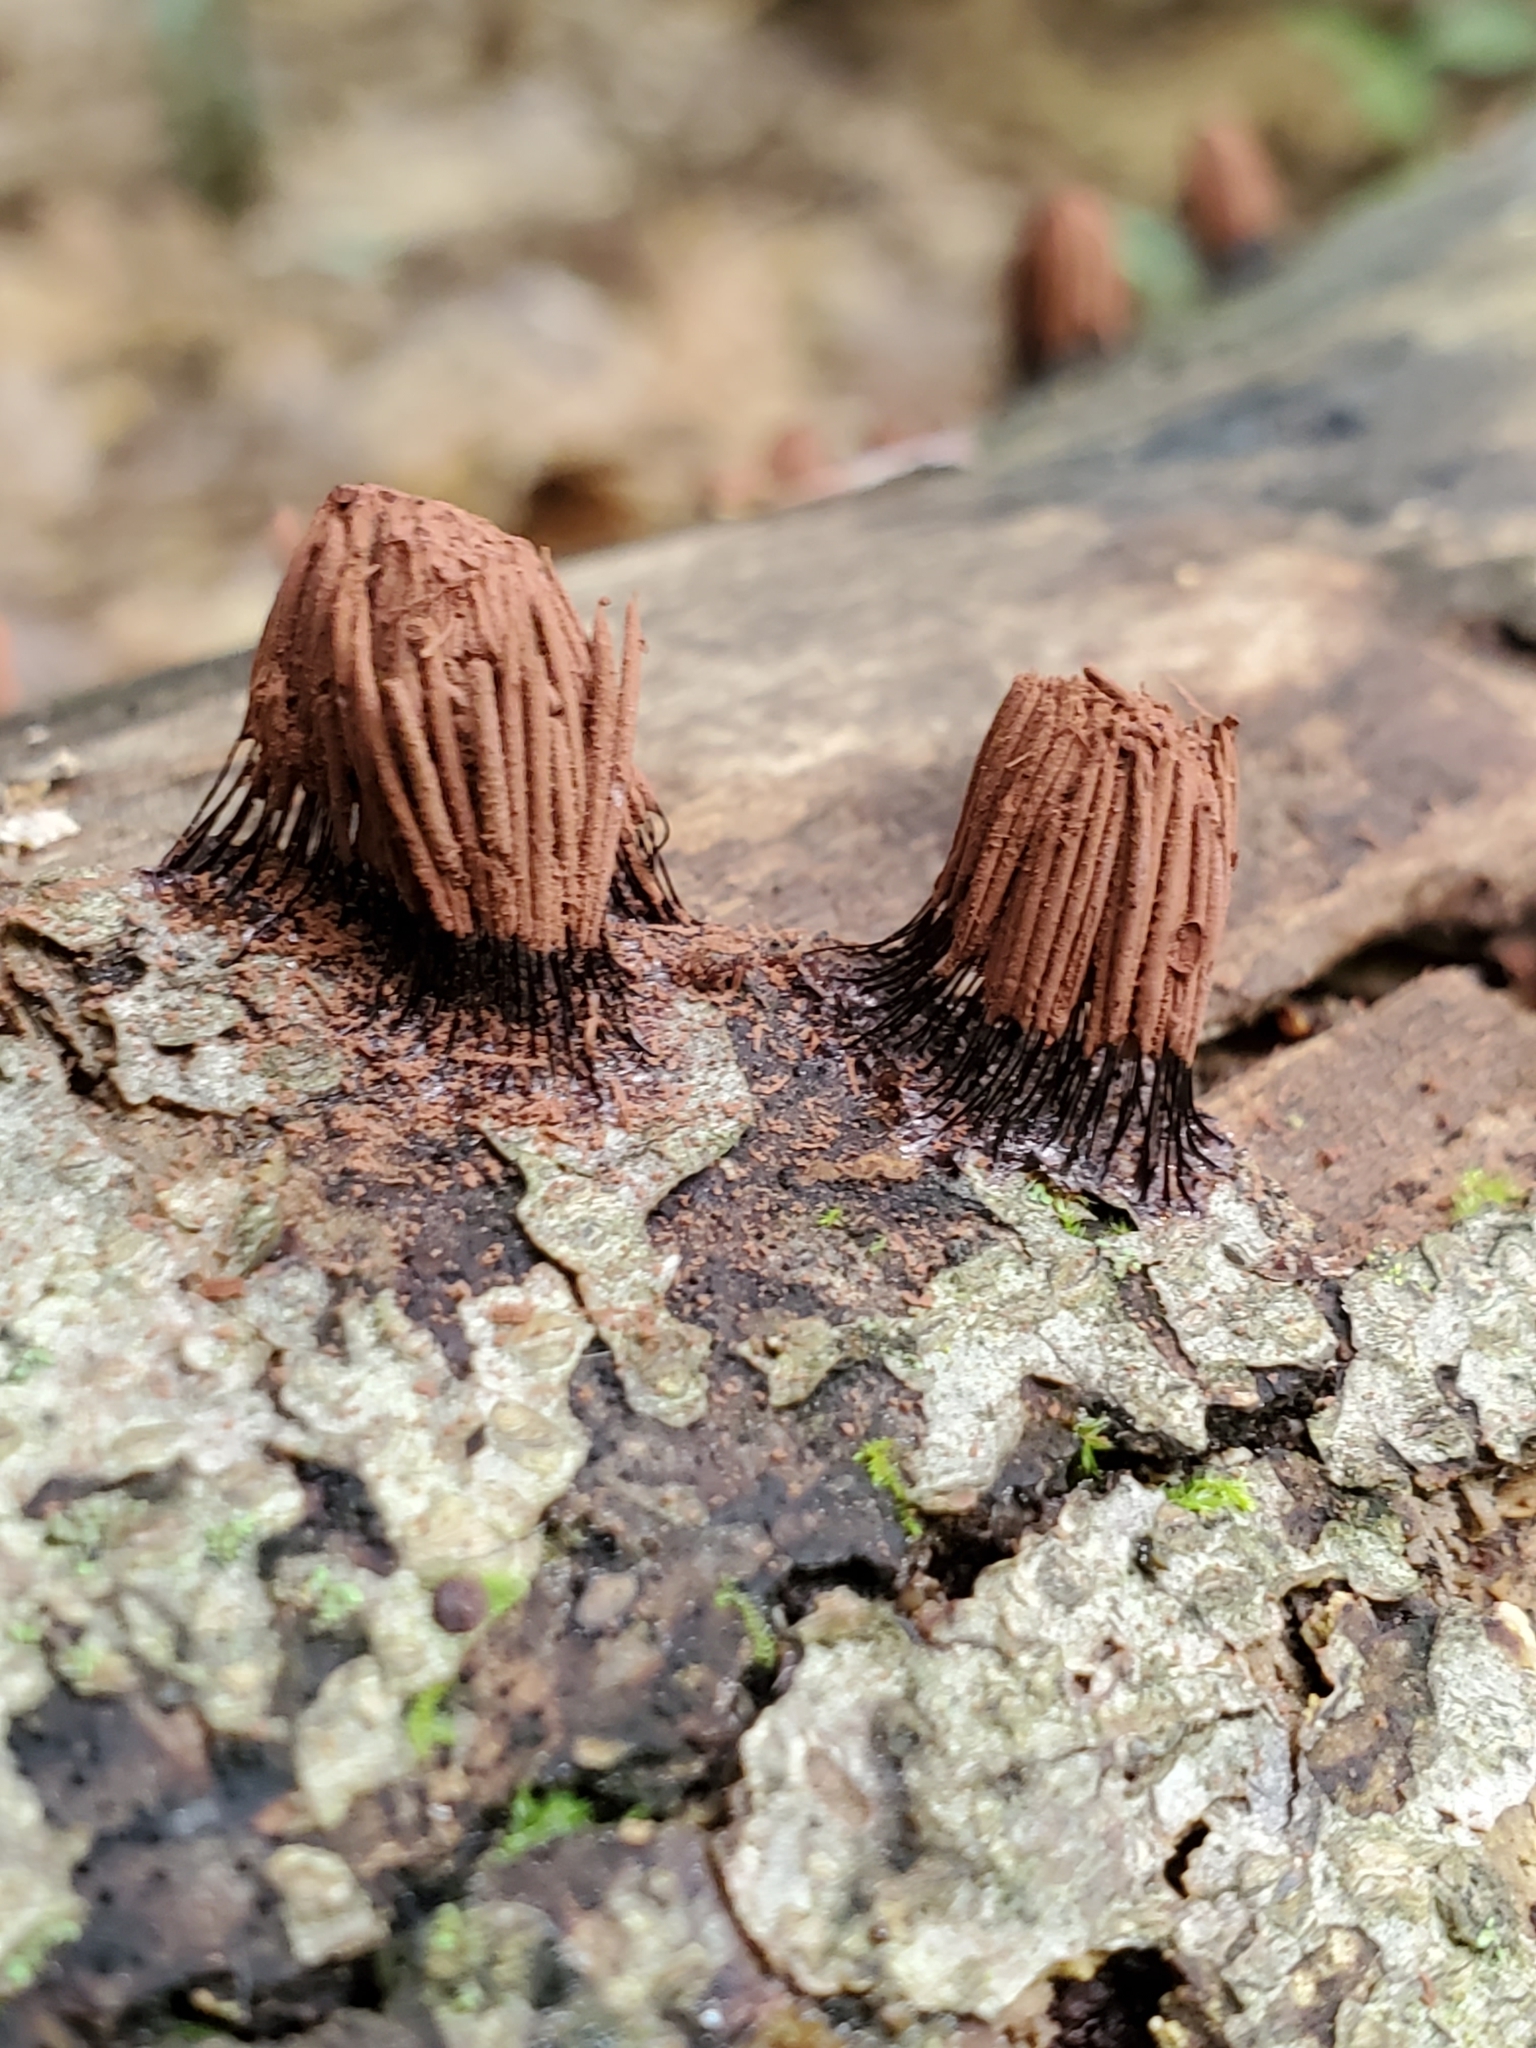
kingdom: Protozoa
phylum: Mycetozoa
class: Myxomycetes
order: Stemonitidales
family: Stemonitidaceae
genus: Stemonitis
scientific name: Stemonitis splendens
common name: Chocolate tube slime
